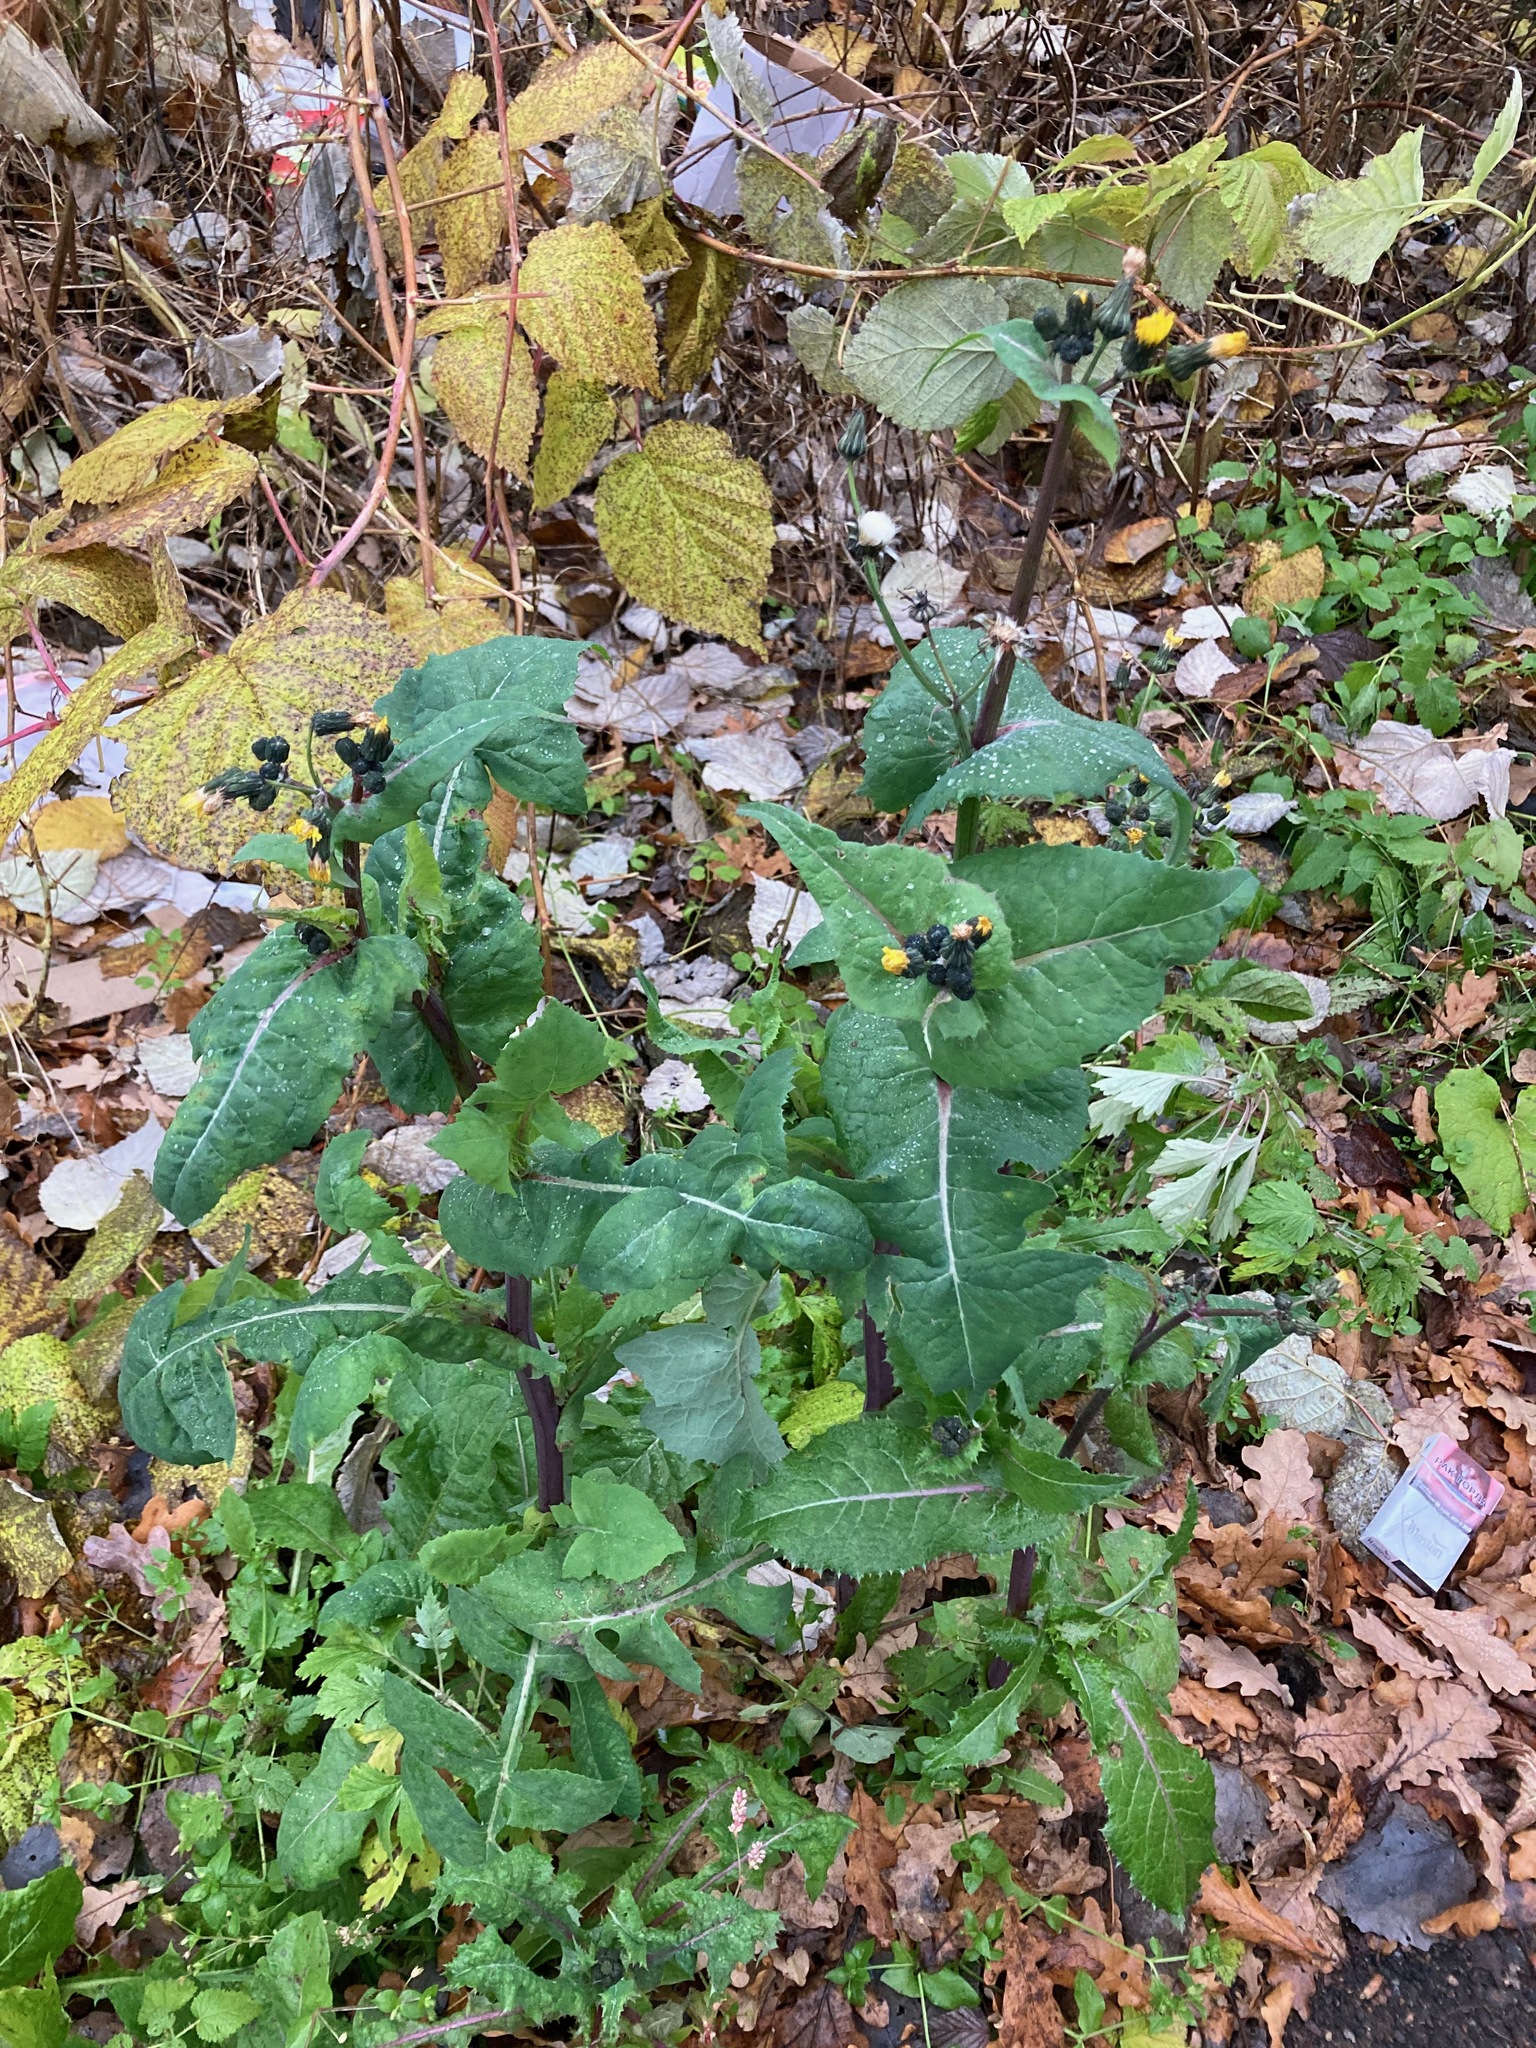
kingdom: Plantae
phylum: Tracheophyta
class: Magnoliopsida
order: Asterales
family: Asteraceae
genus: Sonchus
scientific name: Sonchus oleraceus
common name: Common sowthistle
